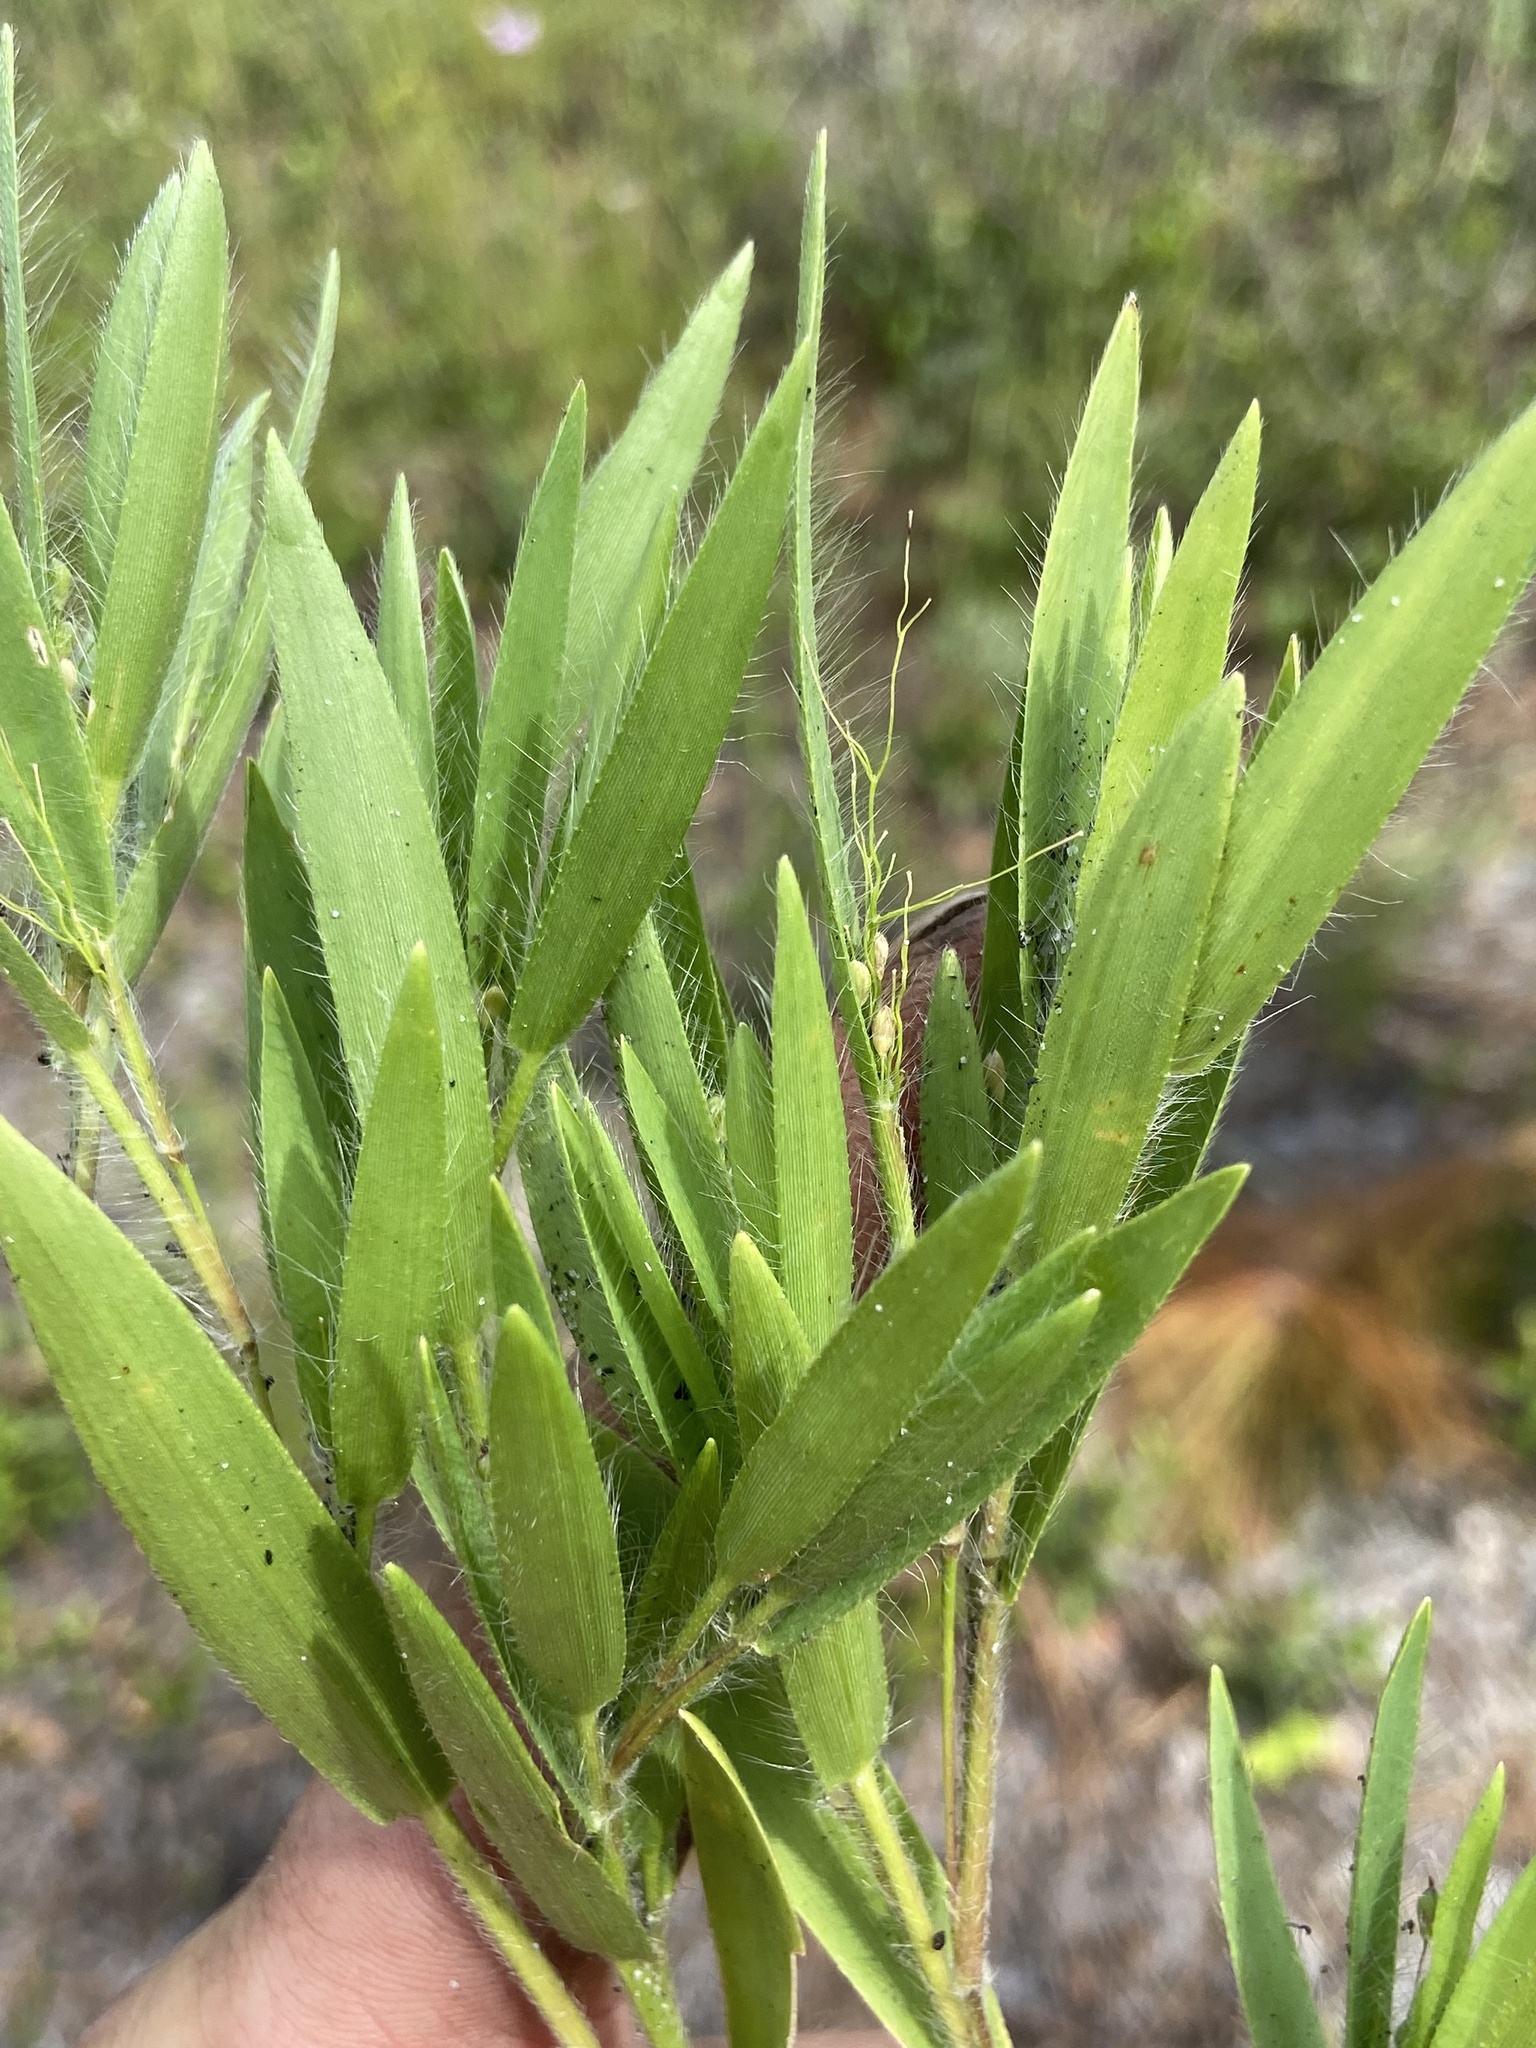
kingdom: Plantae
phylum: Tracheophyta
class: Liliopsida
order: Poales
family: Poaceae
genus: Dichanthelium
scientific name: Dichanthelium ovale
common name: Stiff-leaved panicgrass
